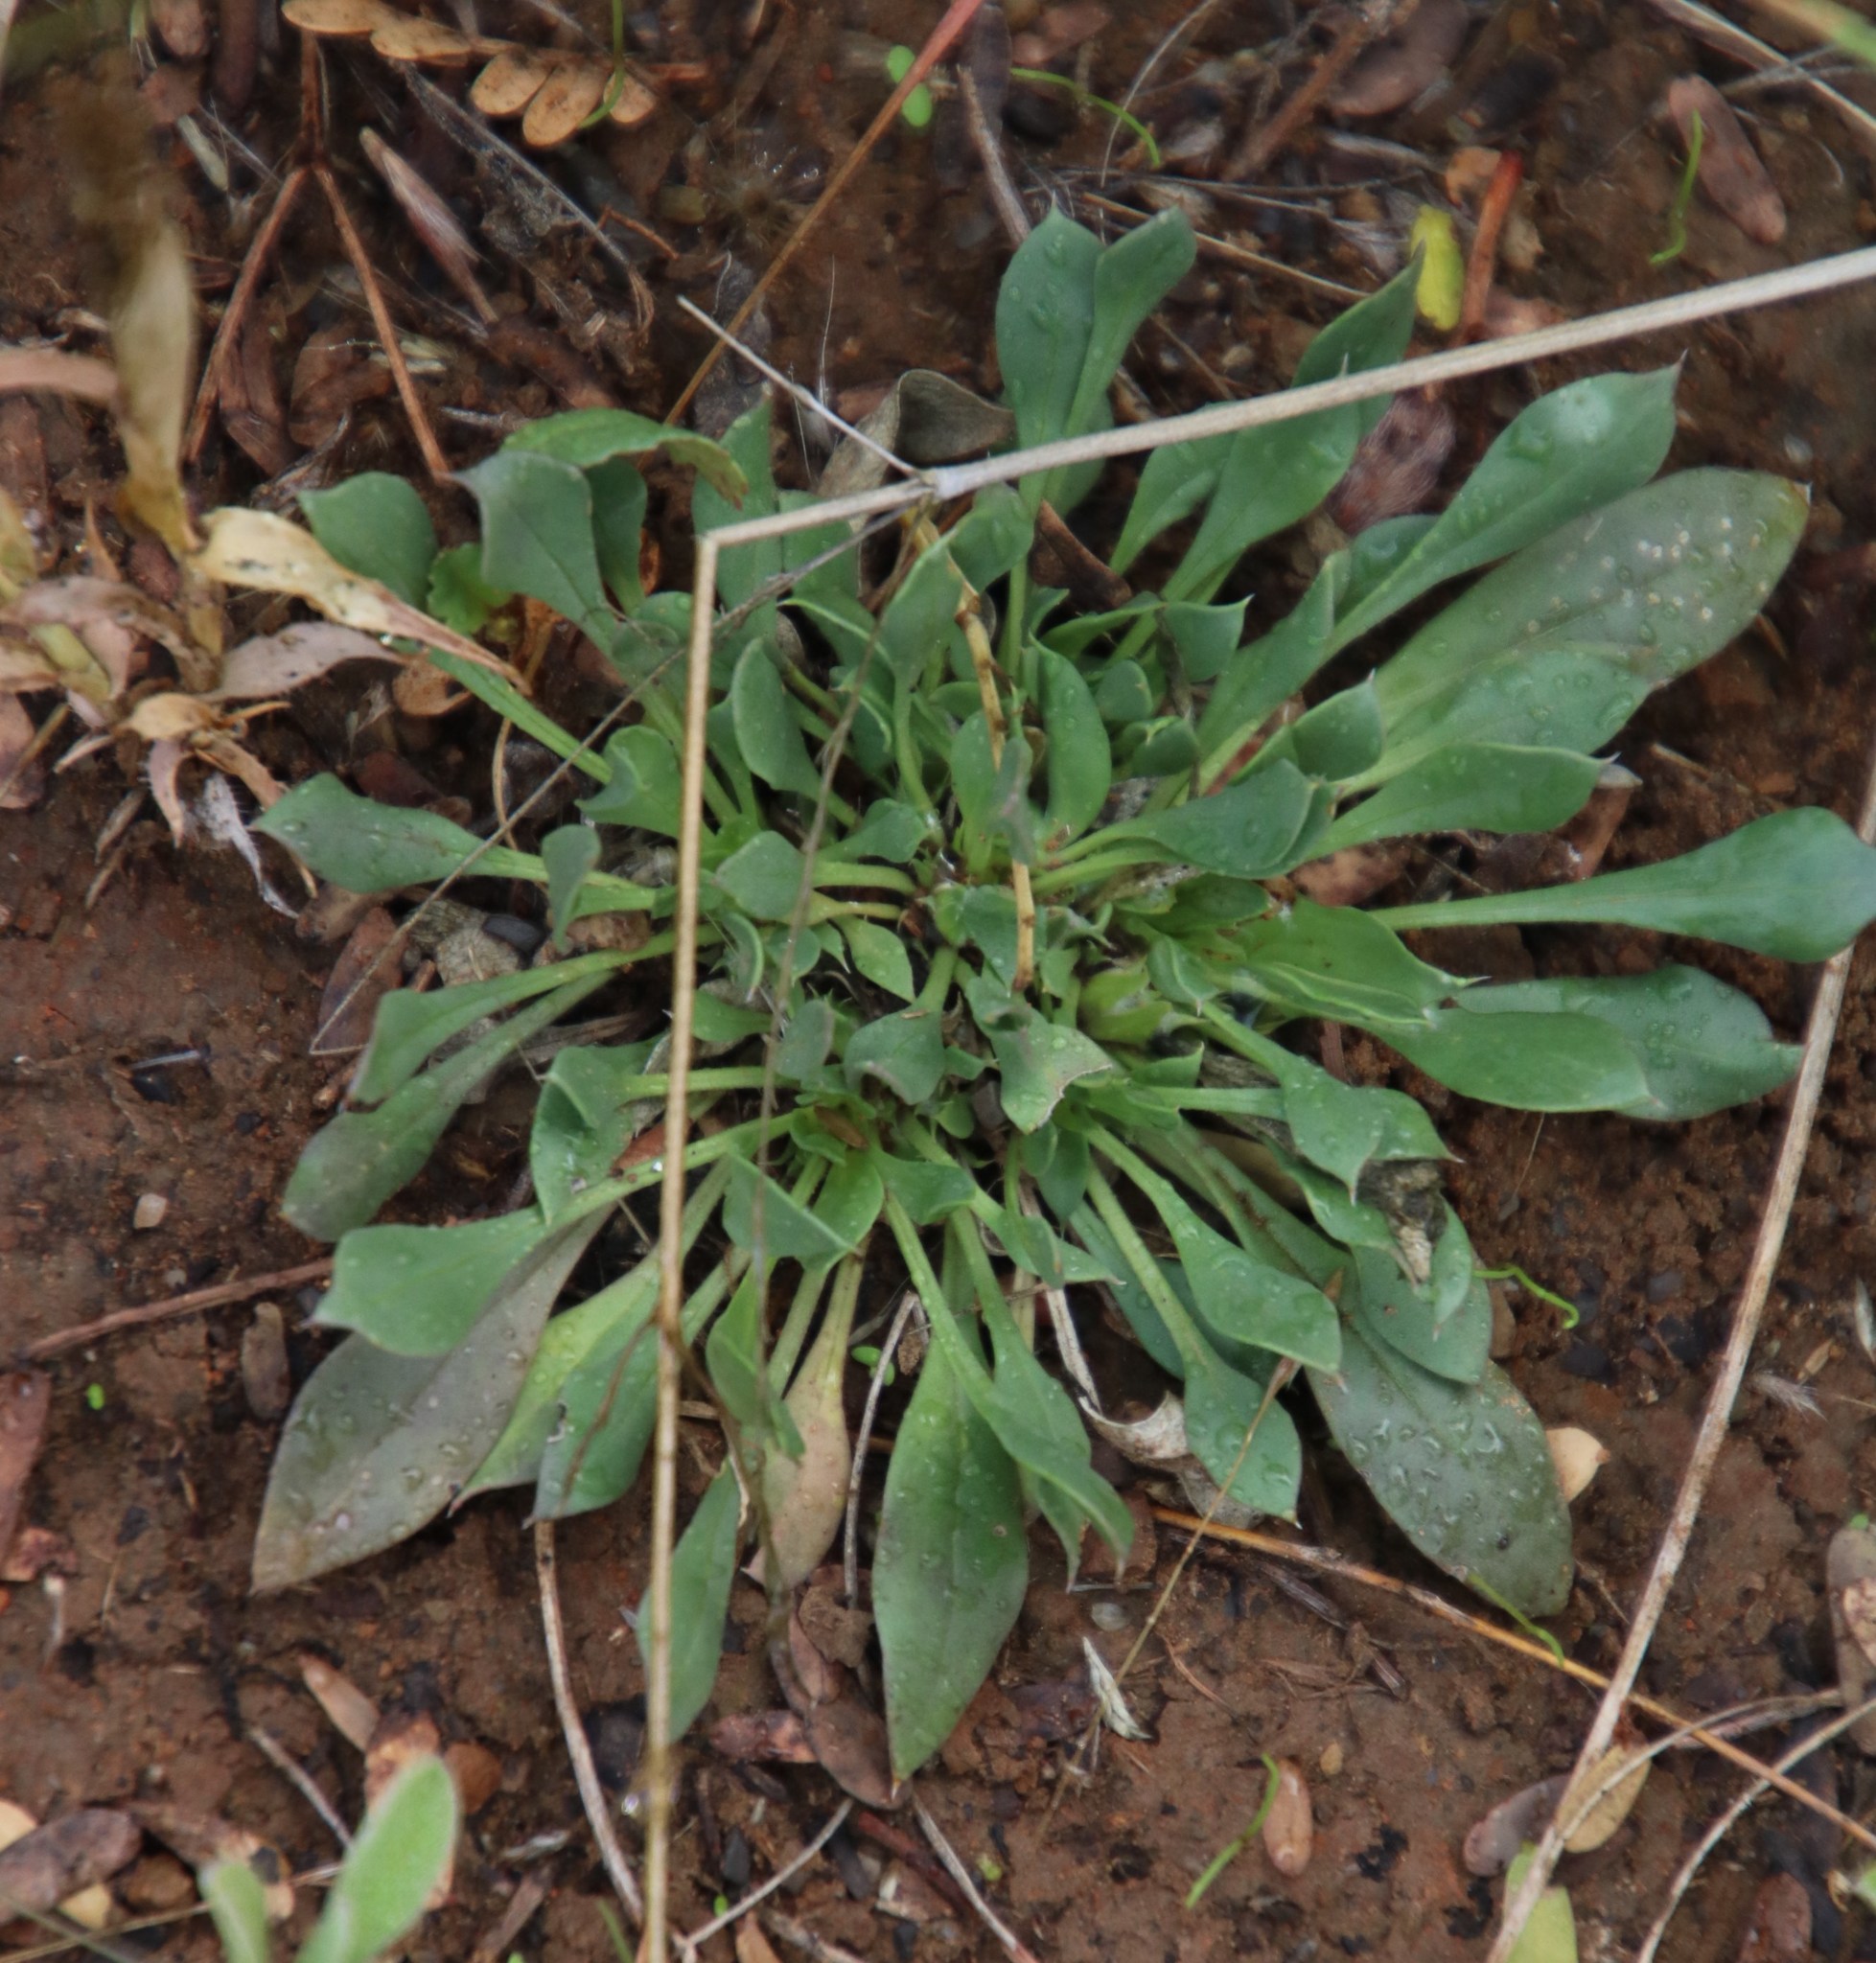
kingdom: Plantae
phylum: Tracheophyta
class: Magnoliopsida
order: Lamiales
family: Scrophulariaceae
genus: Aptosimum
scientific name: Aptosimum indivisum
